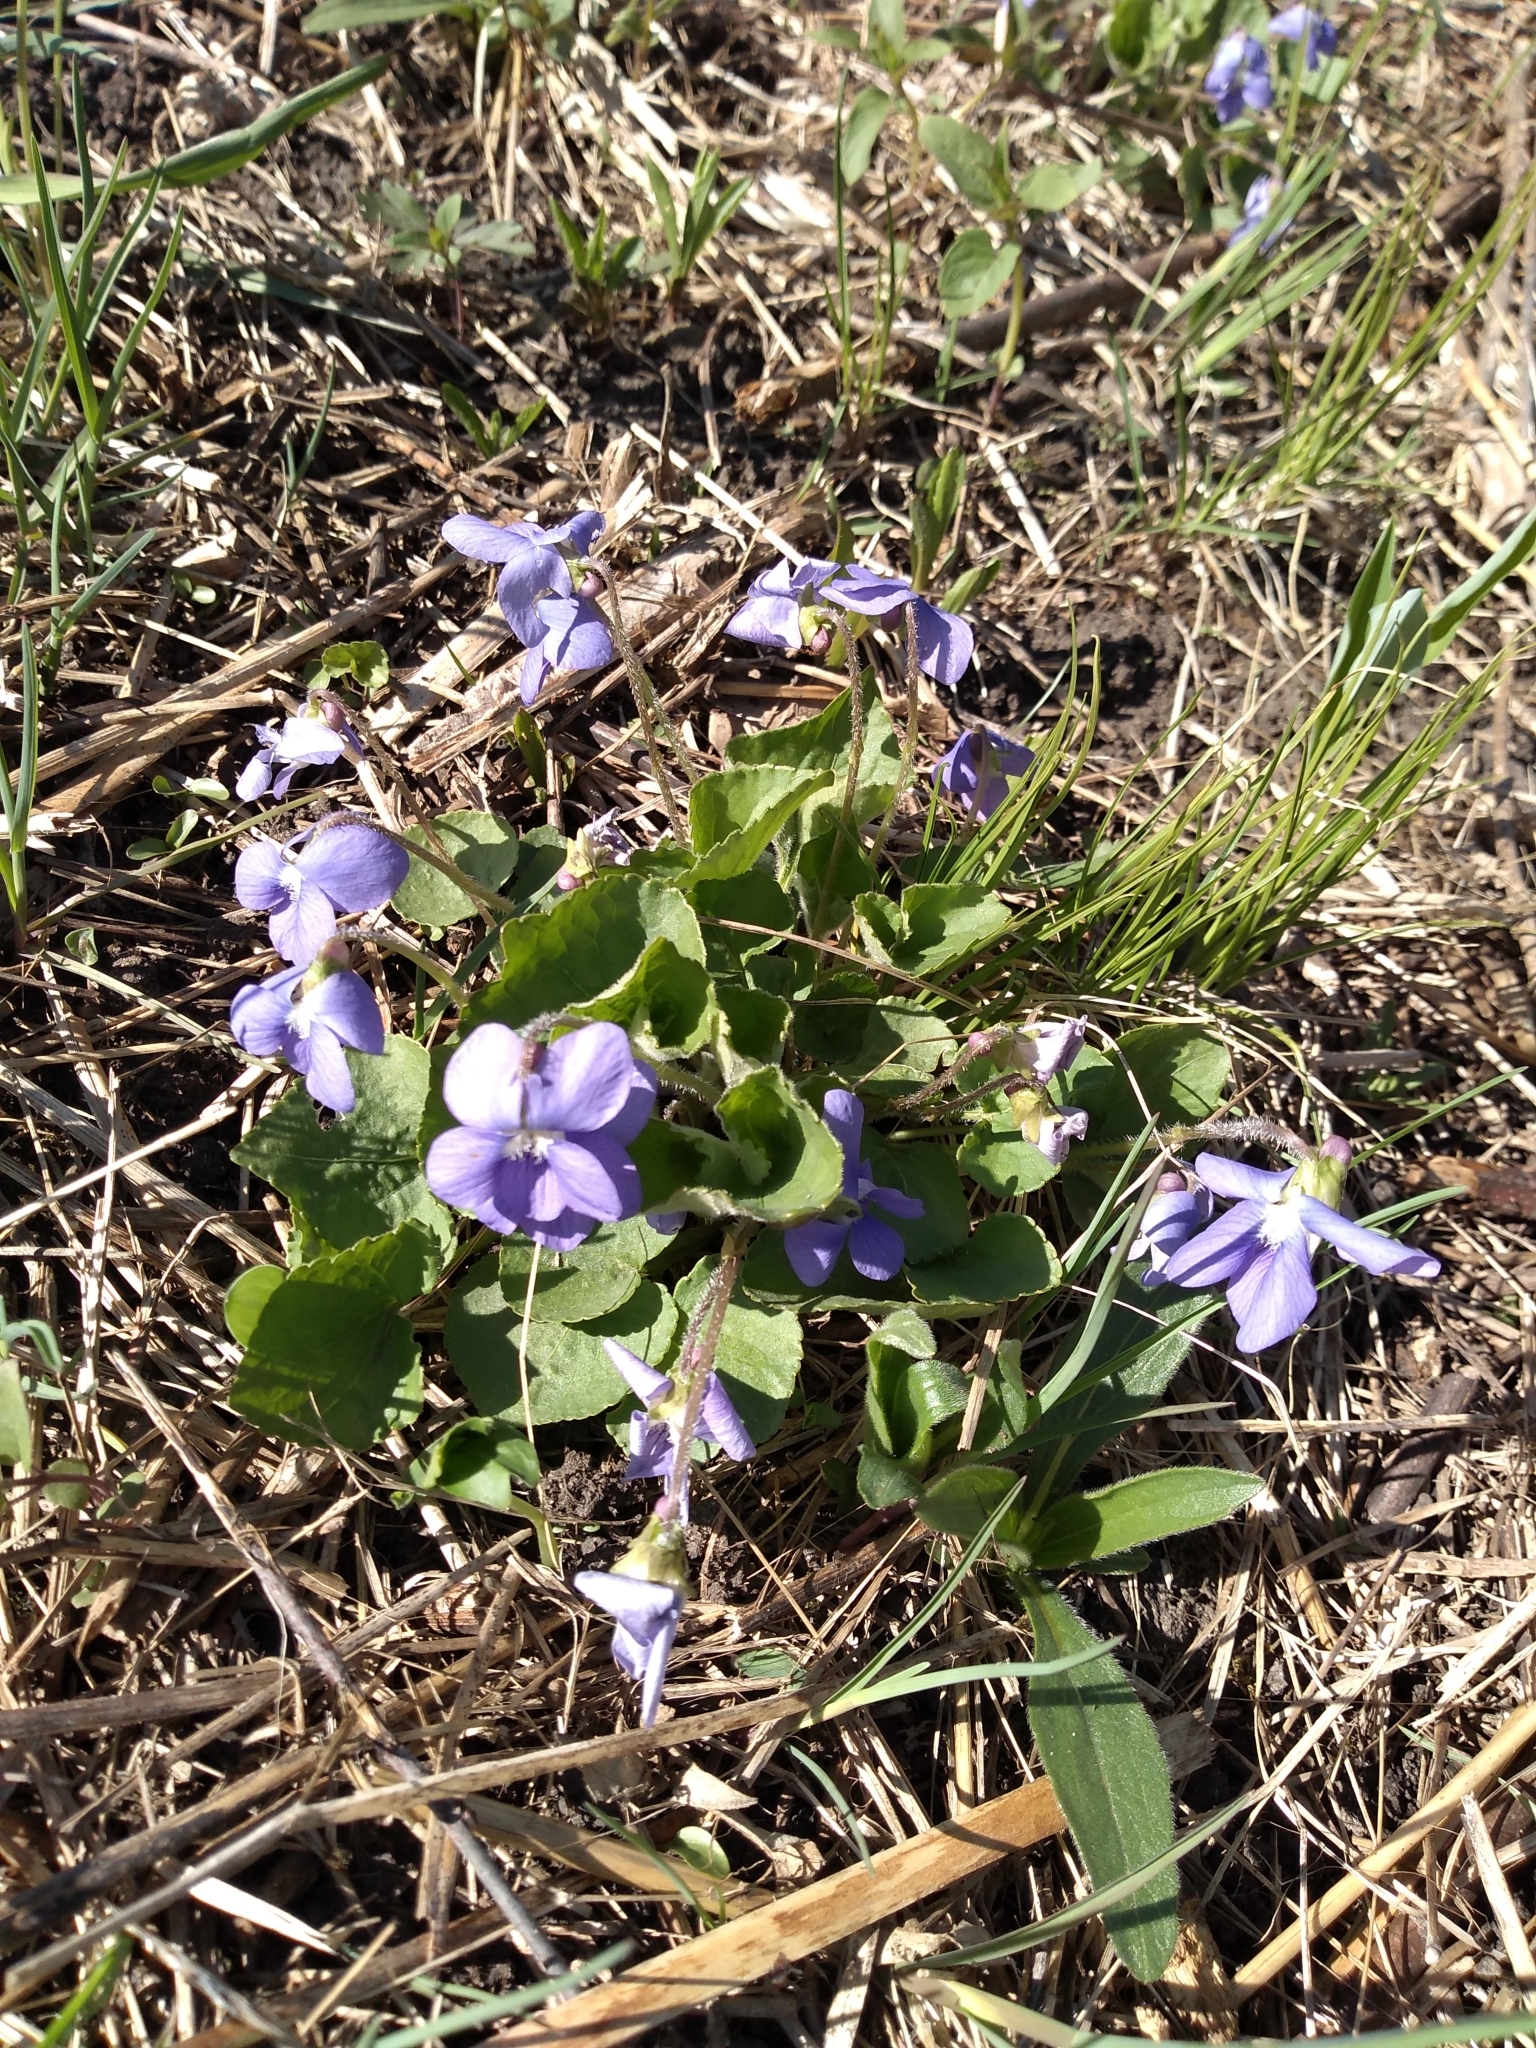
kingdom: Plantae
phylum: Tracheophyta
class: Magnoliopsida
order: Malpighiales
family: Violaceae
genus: Viola
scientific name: Viola sororia
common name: Dooryard violet
